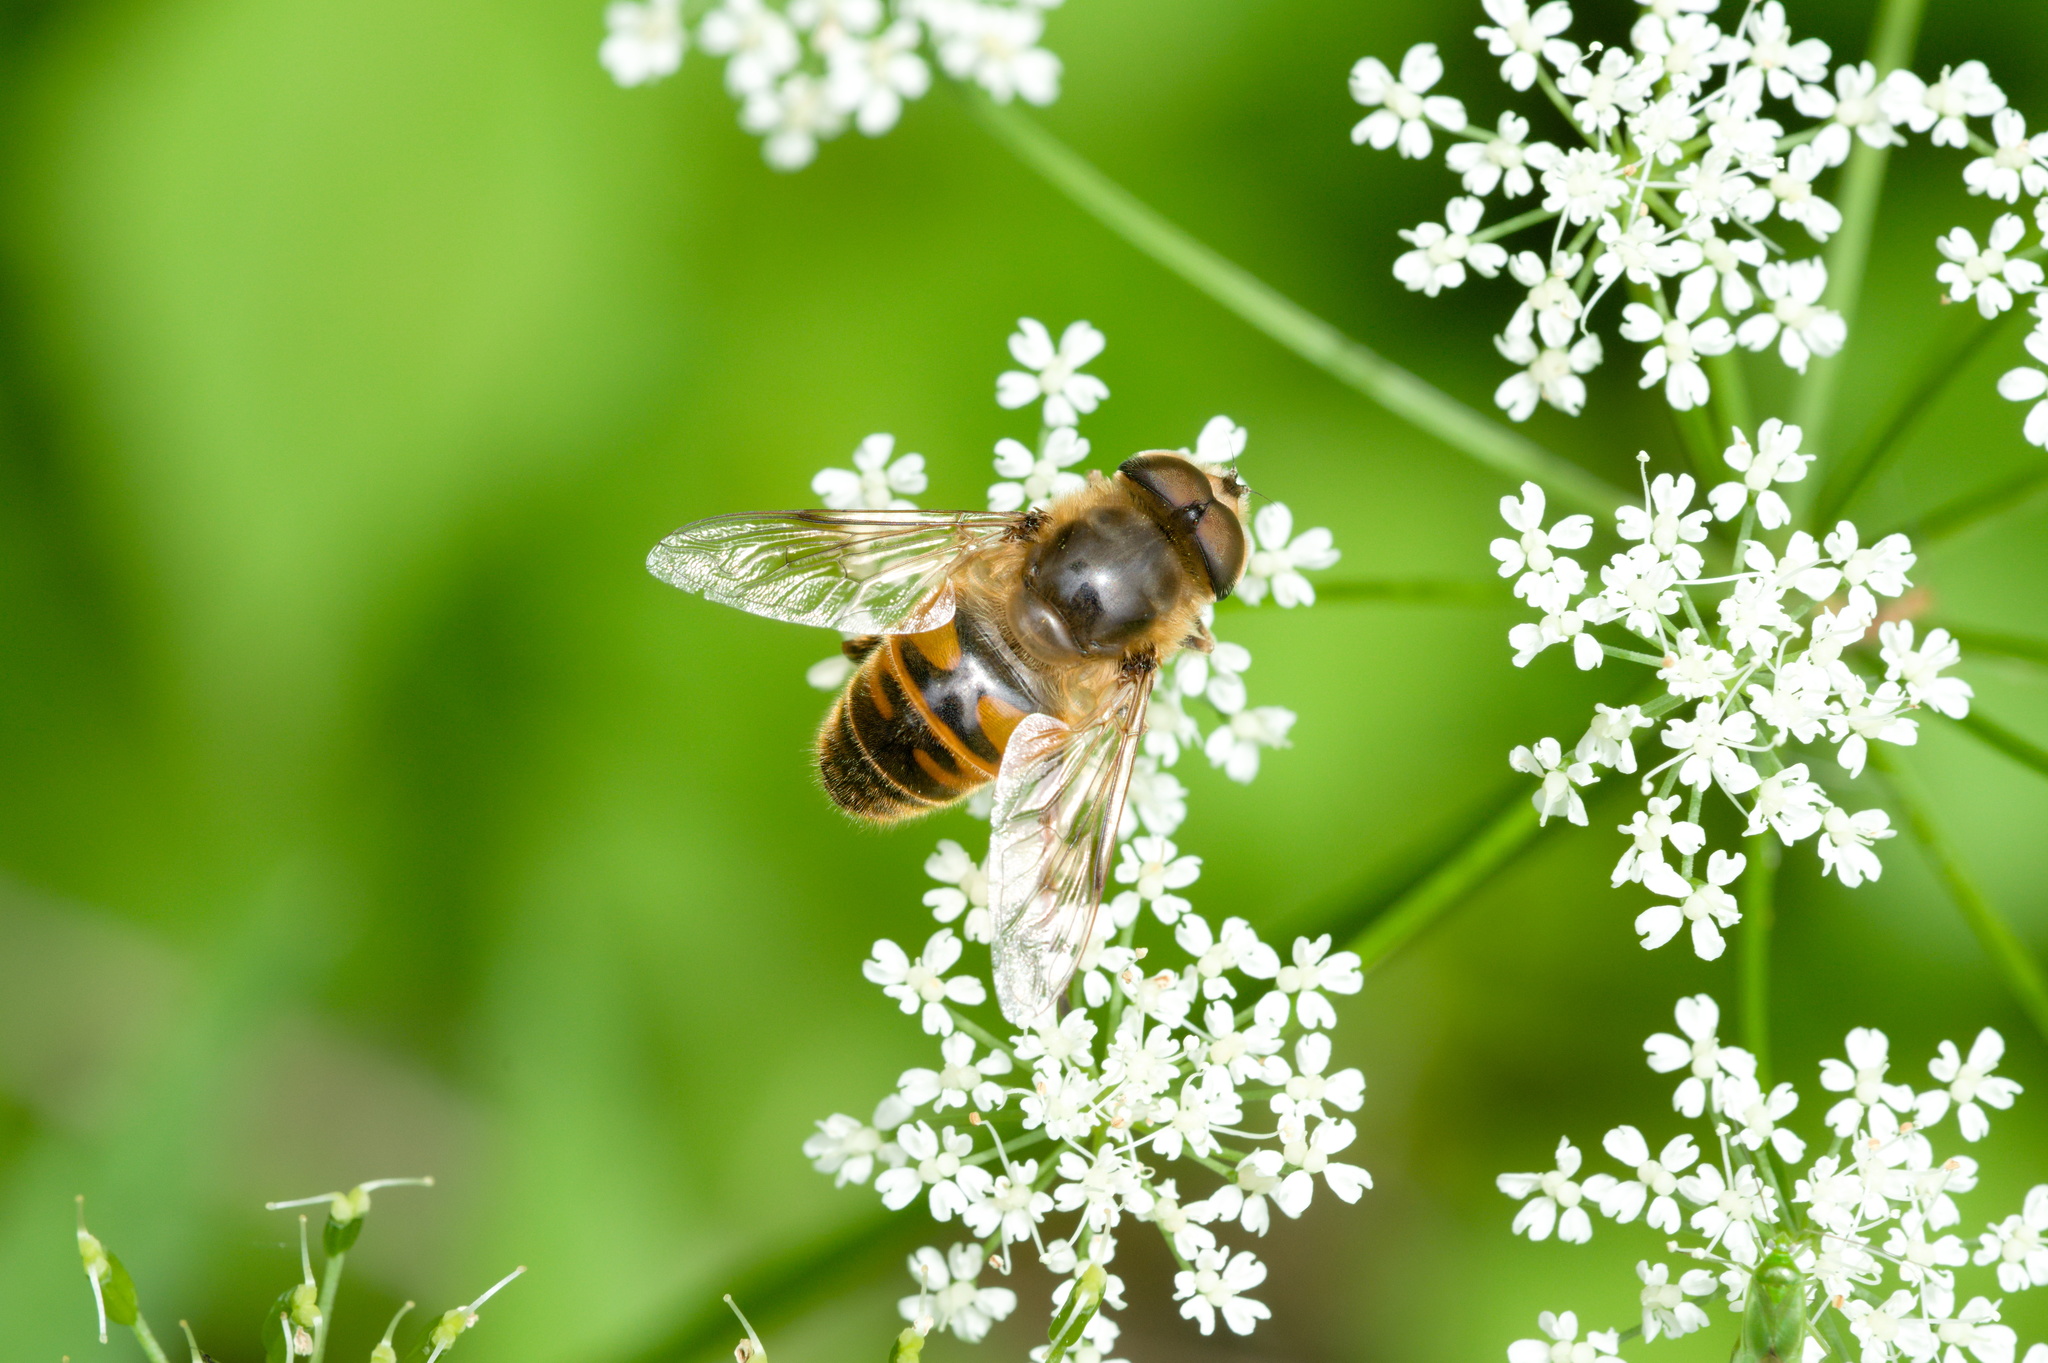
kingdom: Animalia
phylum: Arthropoda
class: Insecta
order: Diptera
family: Syrphidae
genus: Eristalis
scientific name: Eristalis tenax
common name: Drone fly
